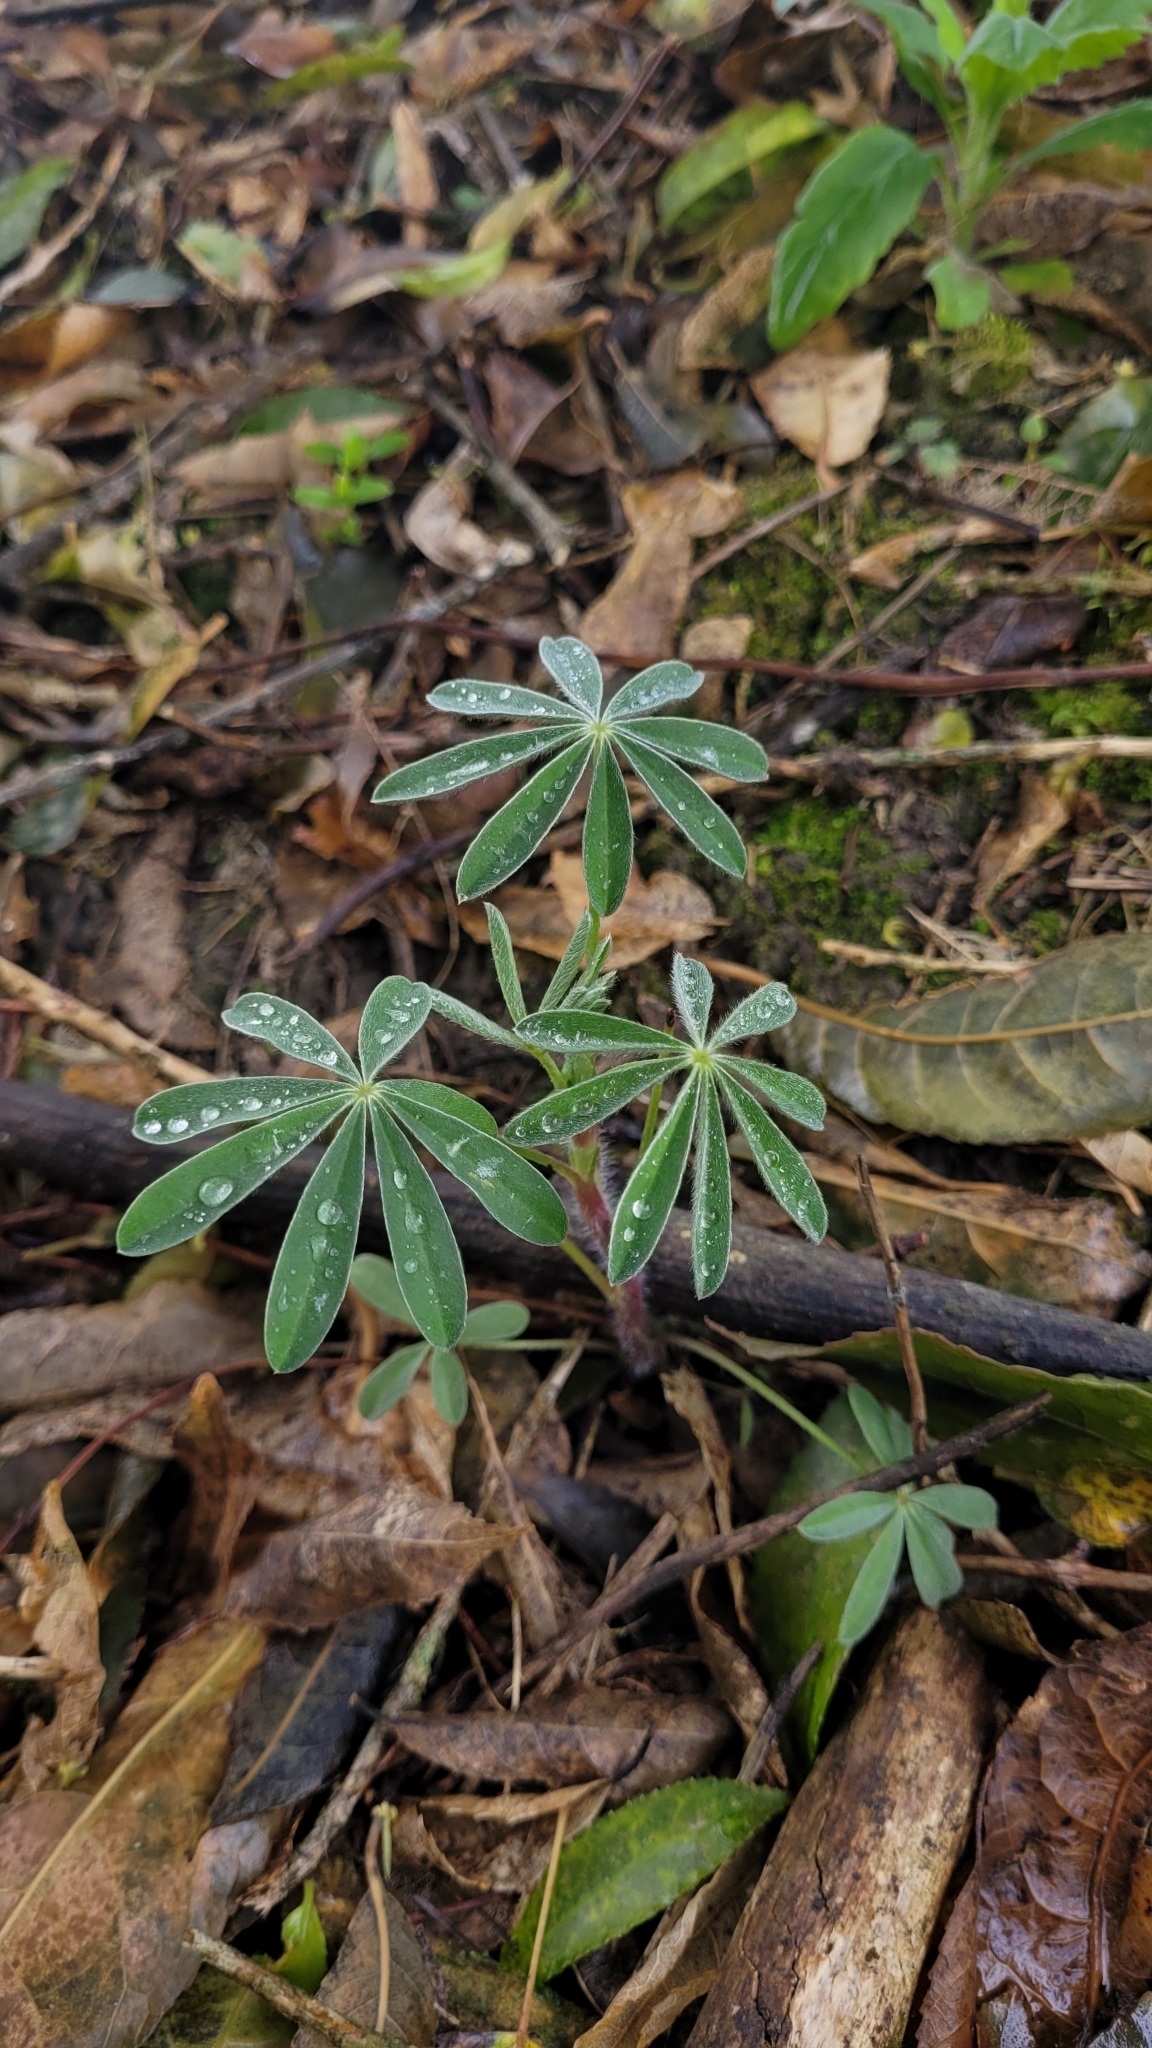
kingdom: Plantae
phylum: Tracheophyta
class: Magnoliopsida
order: Fabales
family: Fabaceae
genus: Lupinus
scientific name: Lupinus arboreus
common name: Yellow bush lupine
